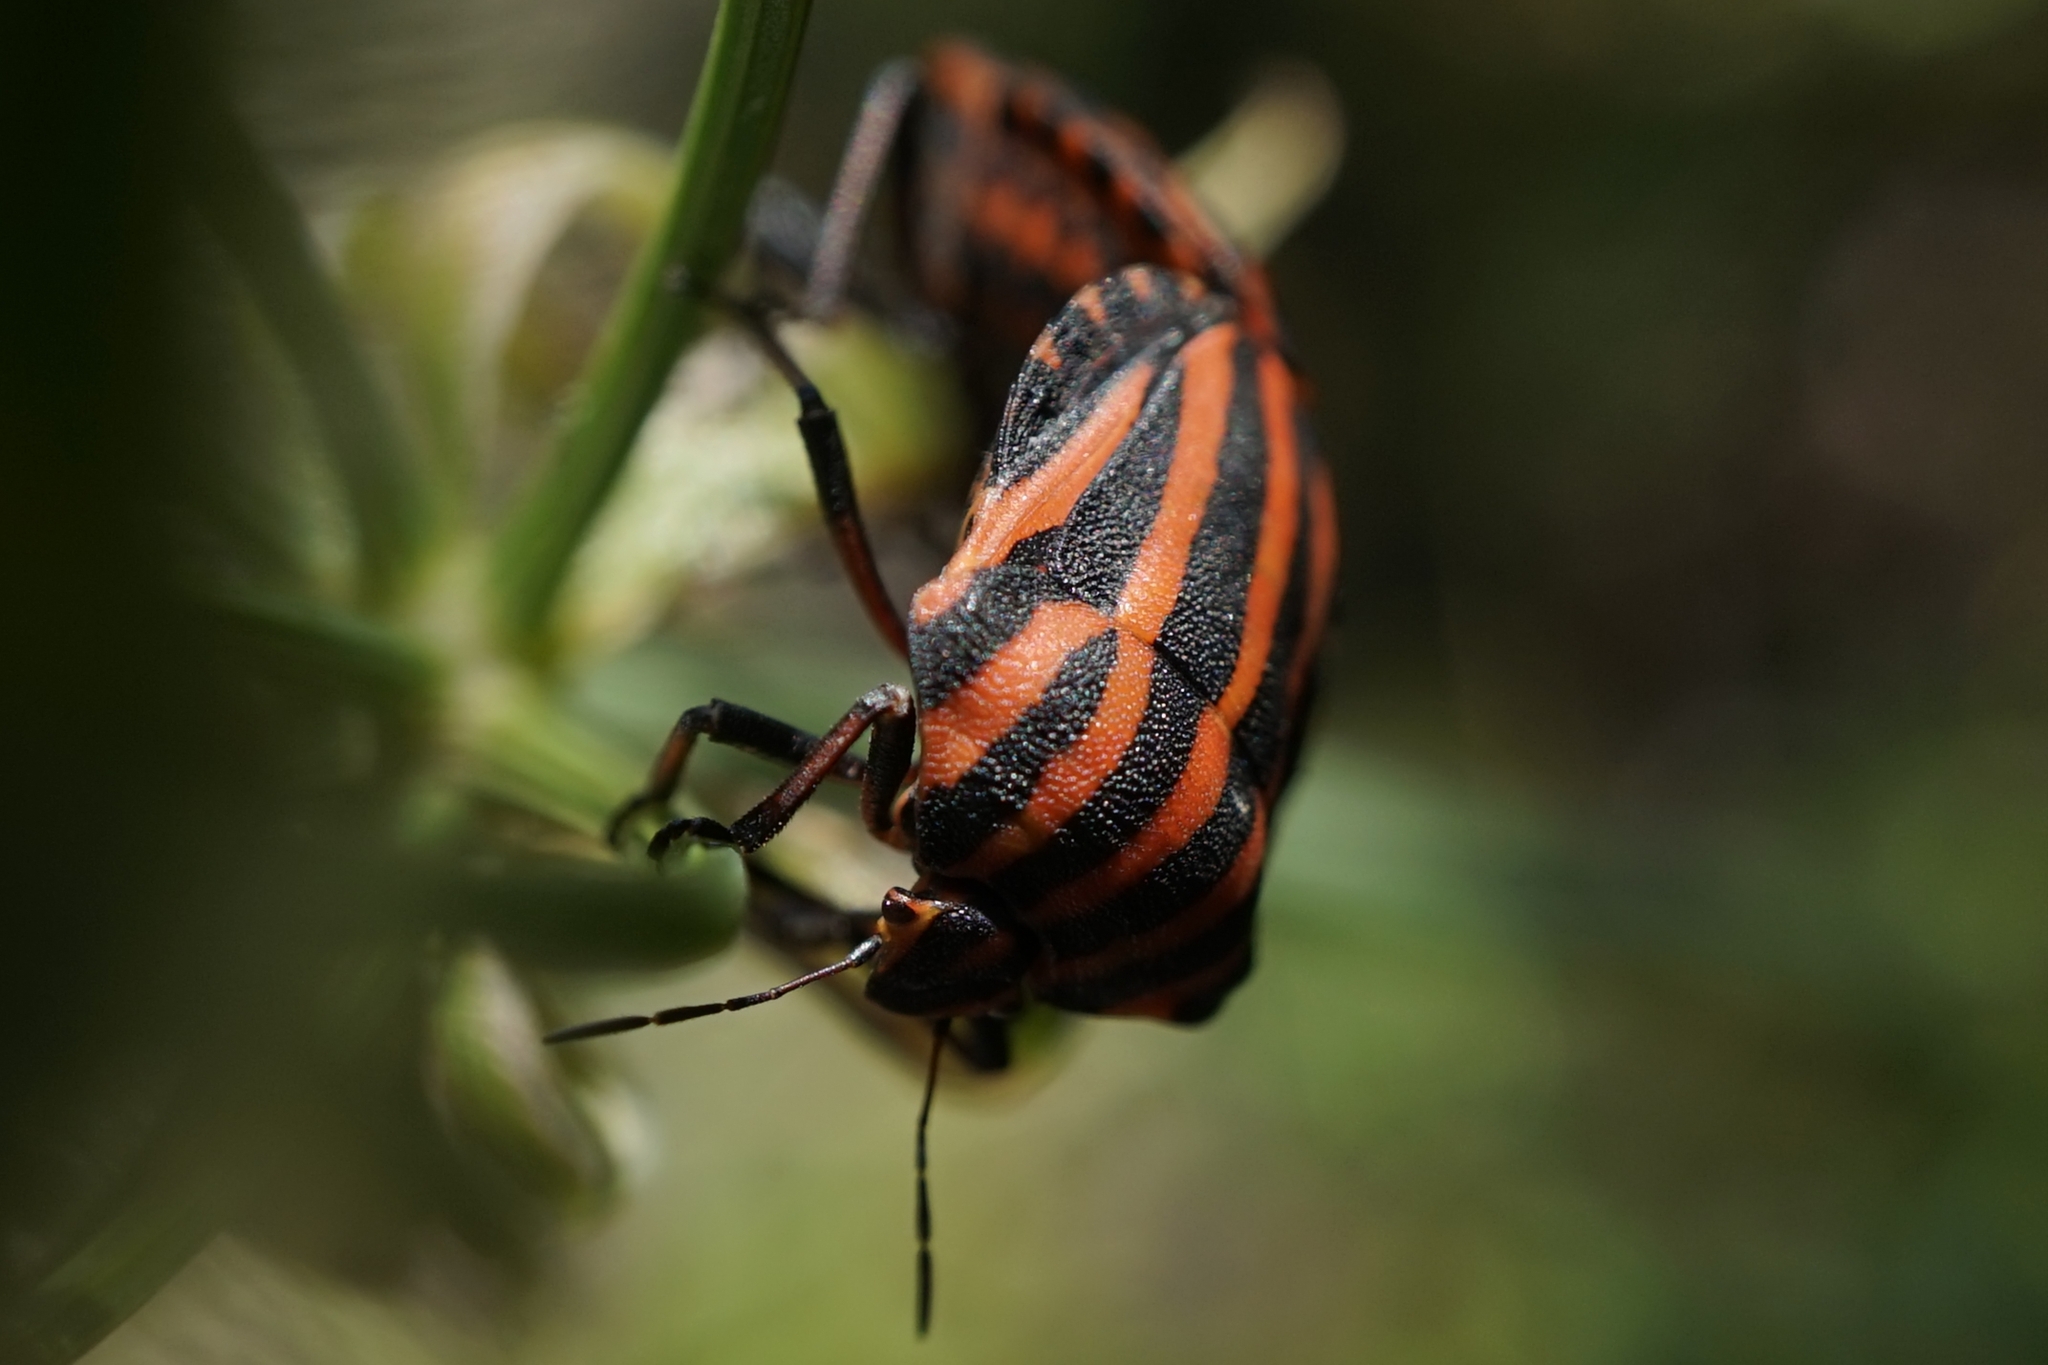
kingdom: Animalia
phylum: Arthropoda
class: Insecta
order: Hemiptera
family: Pentatomidae
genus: Graphosoma
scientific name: Graphosoma rubrolineatum
